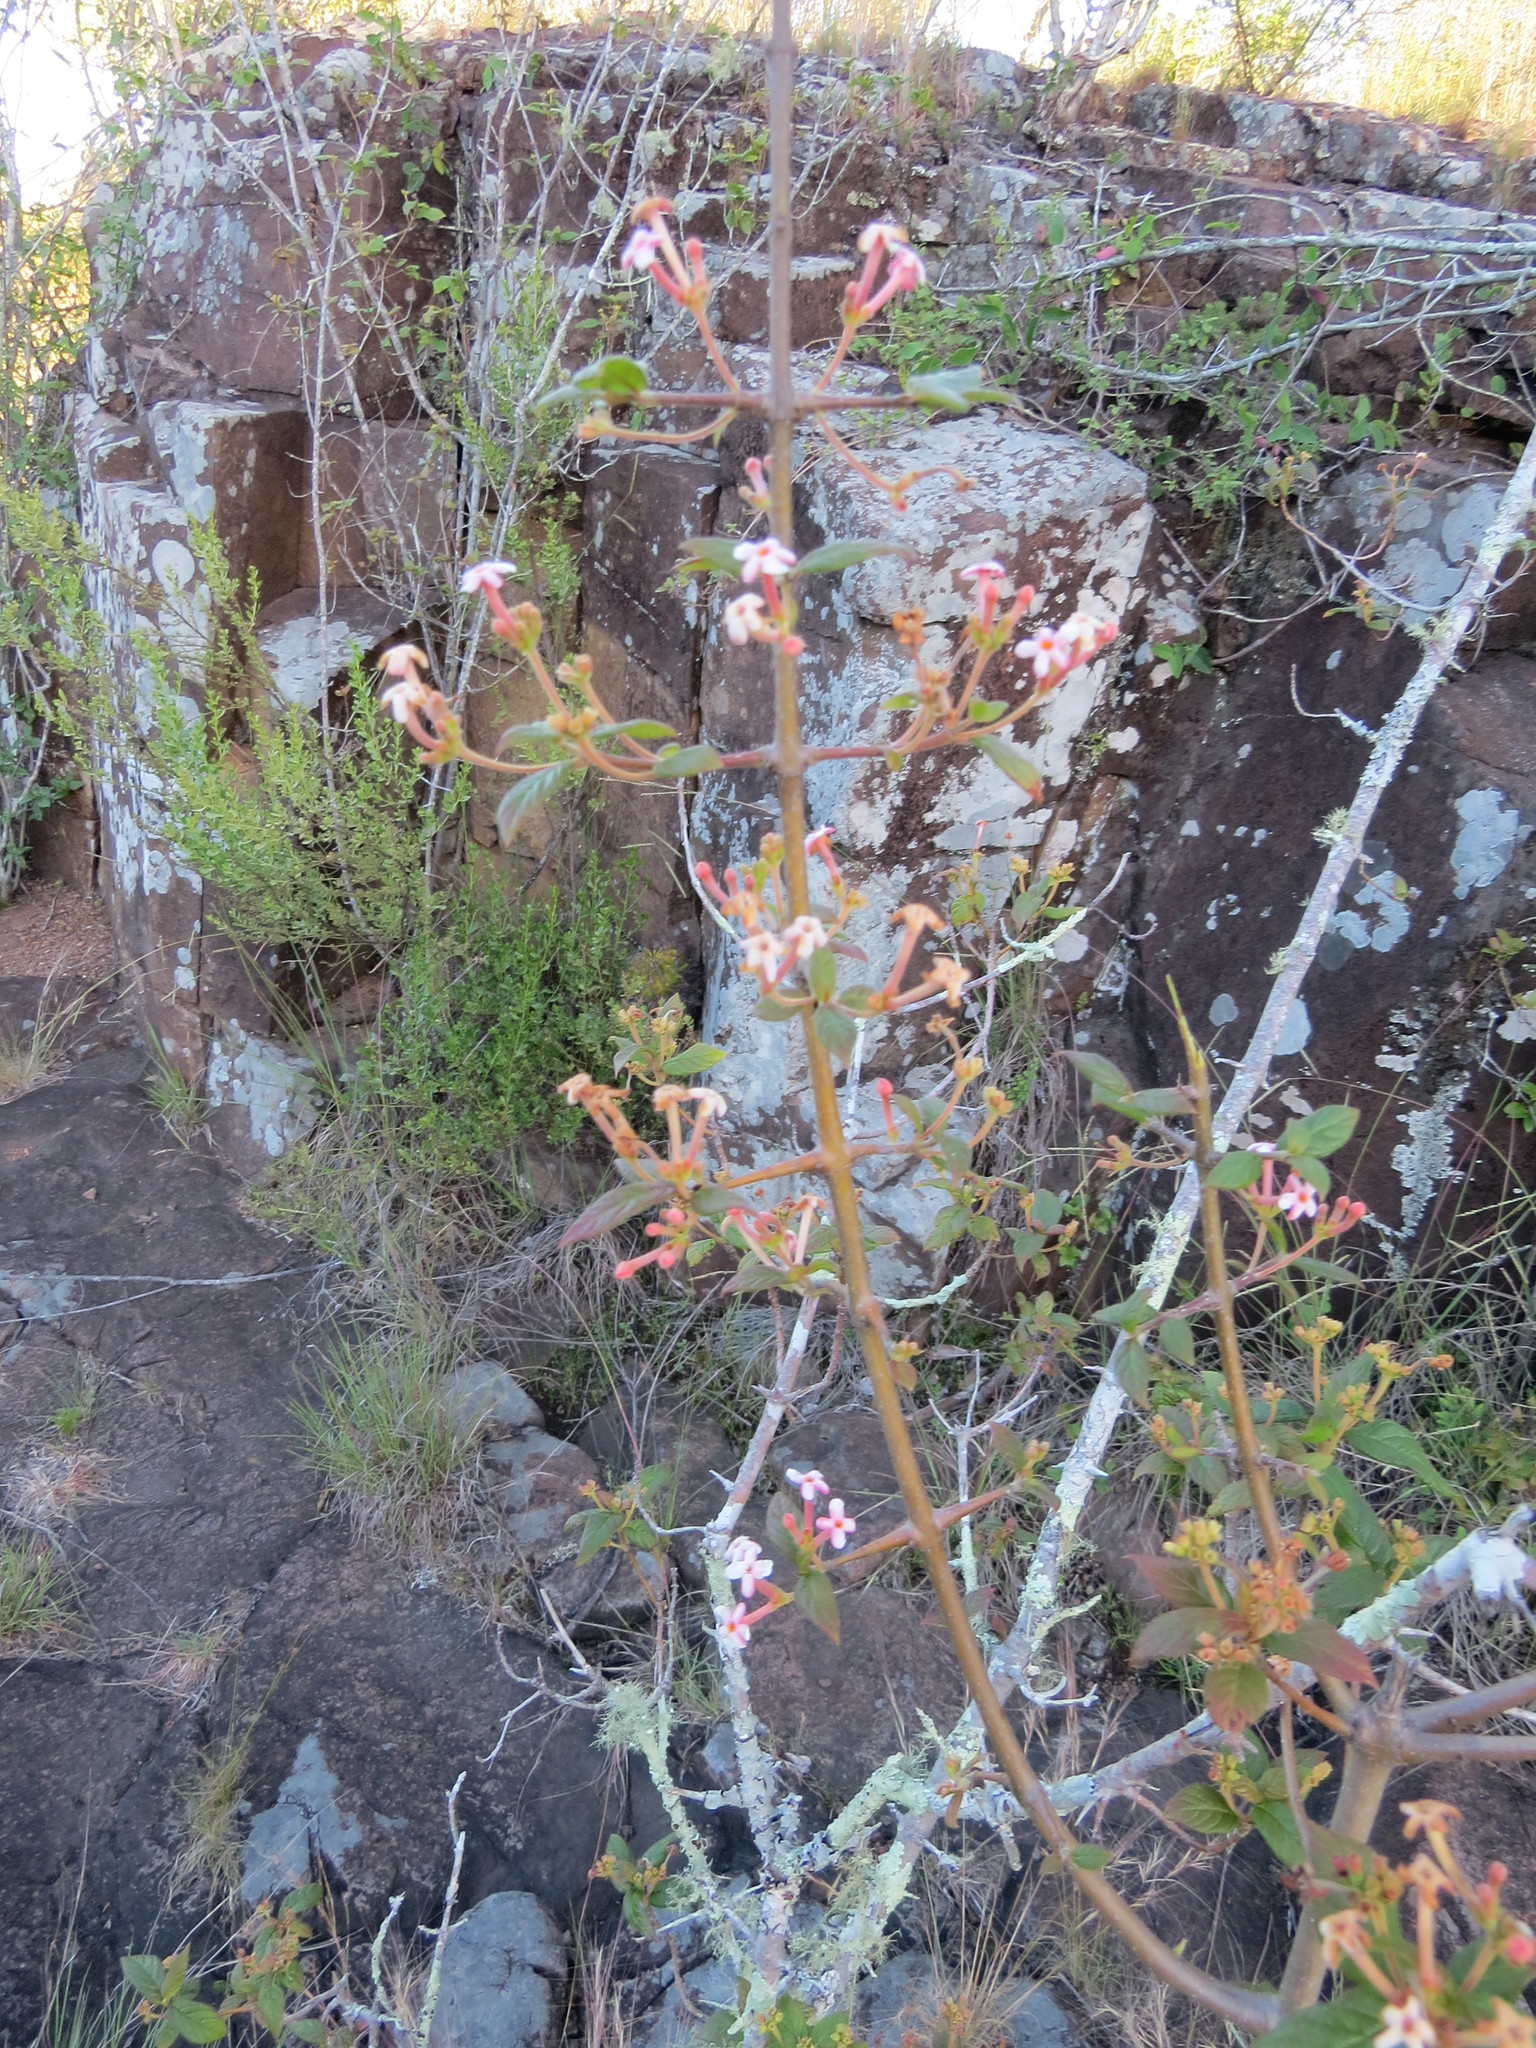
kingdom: Plantae
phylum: Tracheophyta
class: Magnoliopsida
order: Gentianales
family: Rubiaceae
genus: Guettarda
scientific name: Guettarda uruguensis
